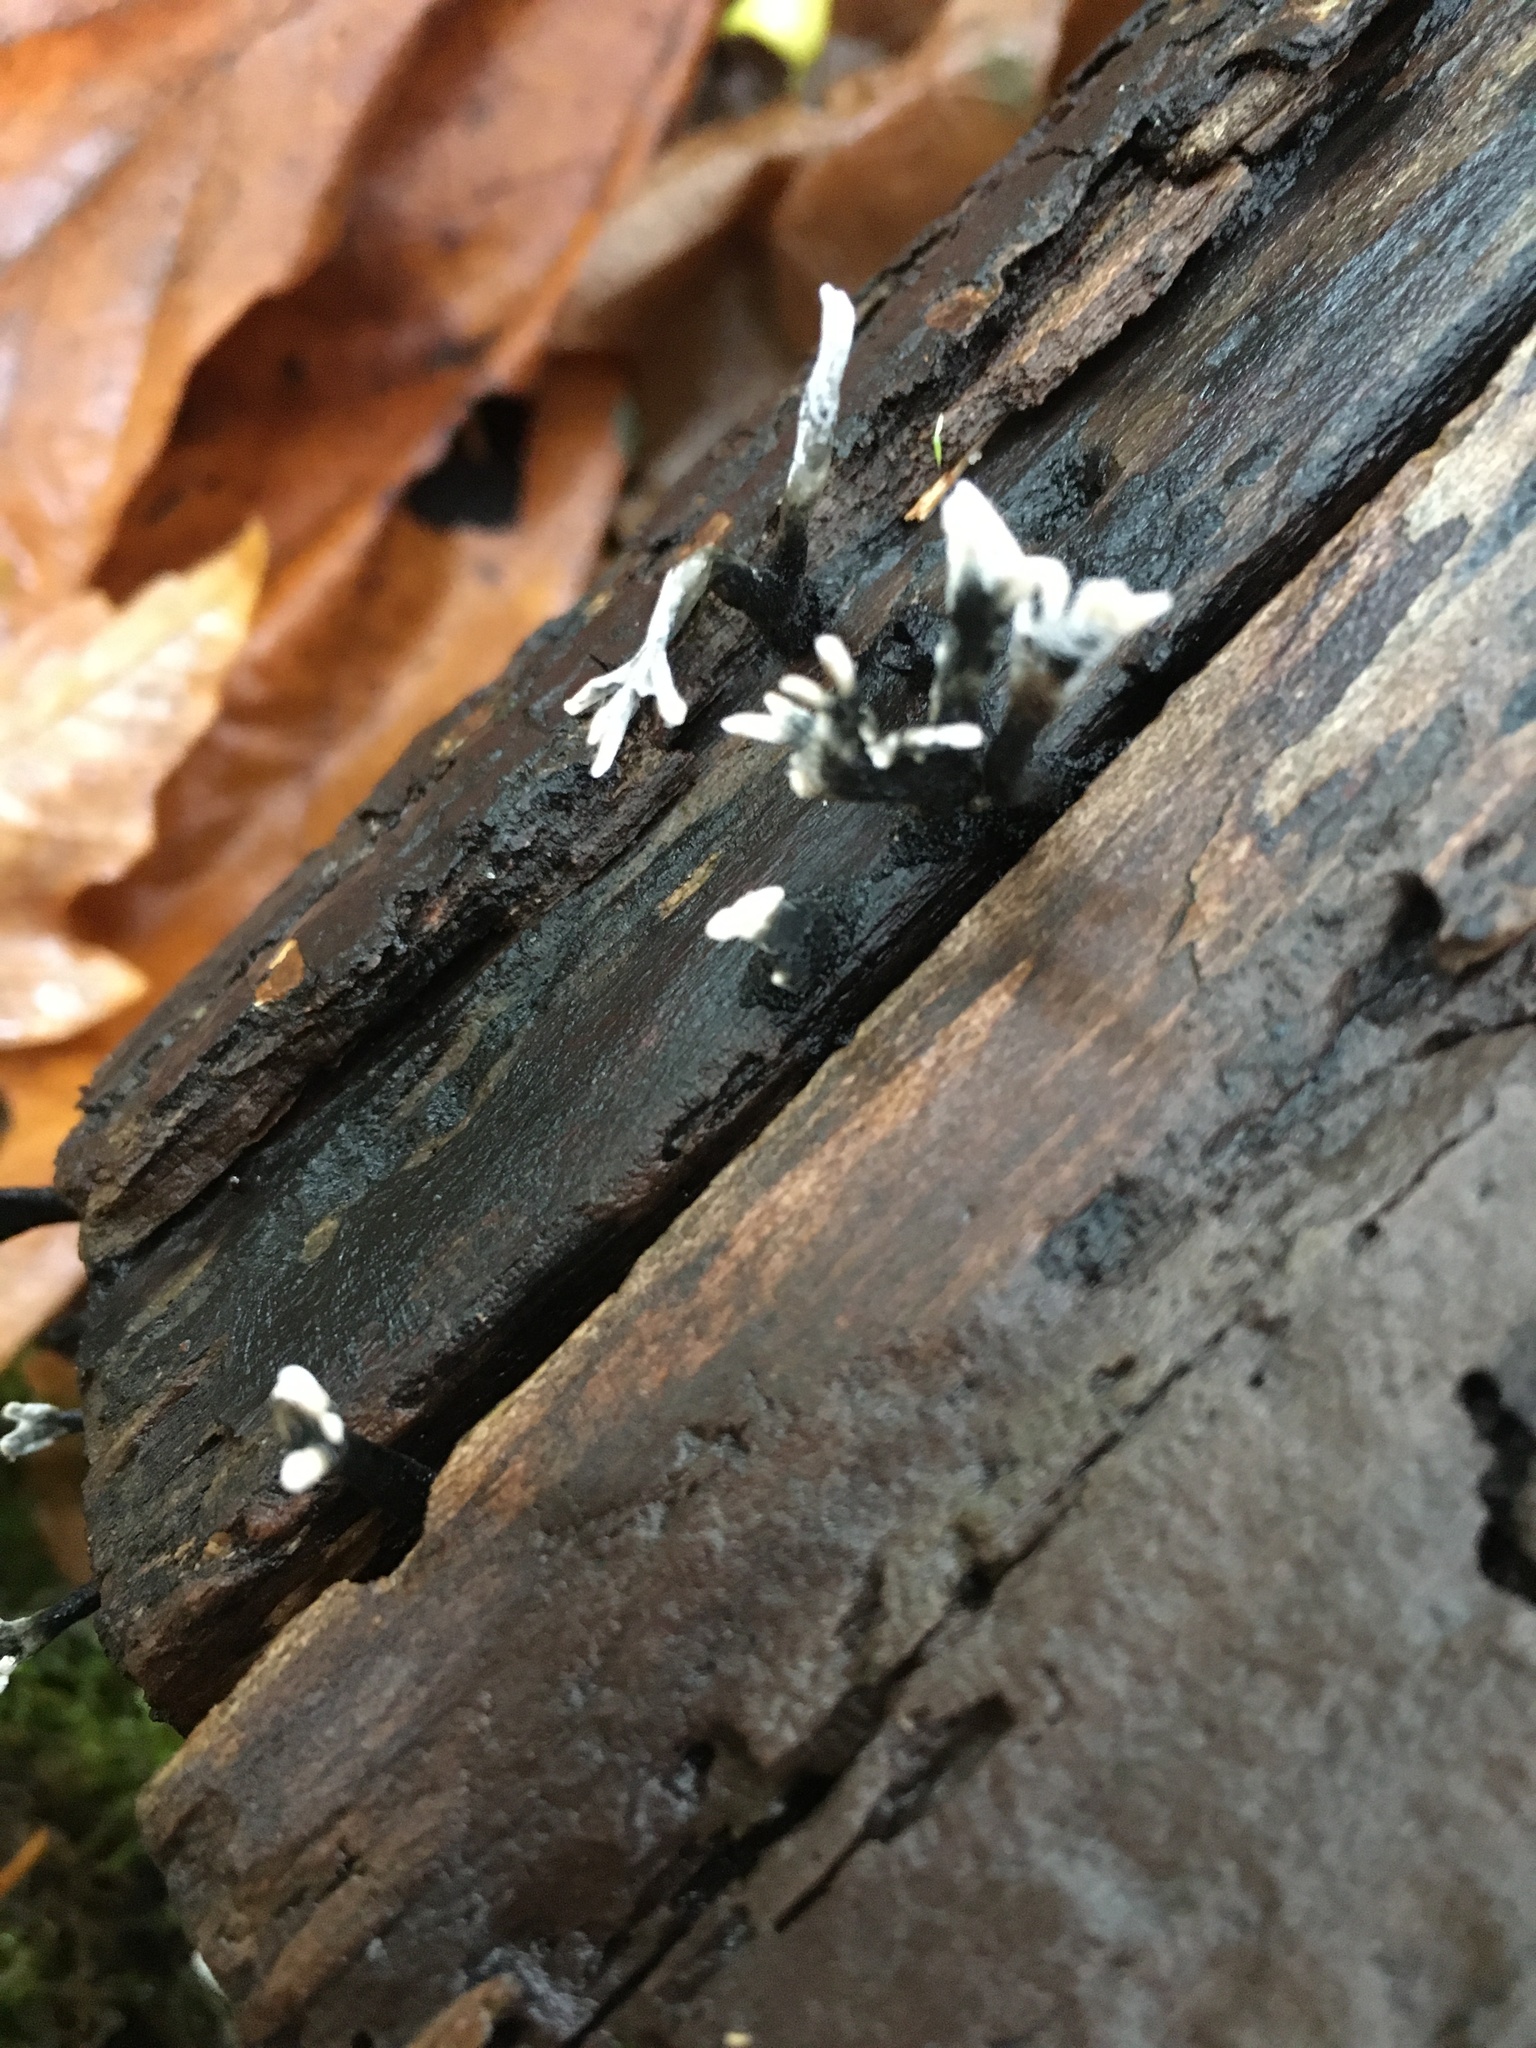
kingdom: Fungi
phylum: Ascomycota
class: Sordariomycetes
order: Xylariales
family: Xylariaceae
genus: Xylaria
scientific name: Xylaria hypoxylon
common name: Candle-snuff fungus
